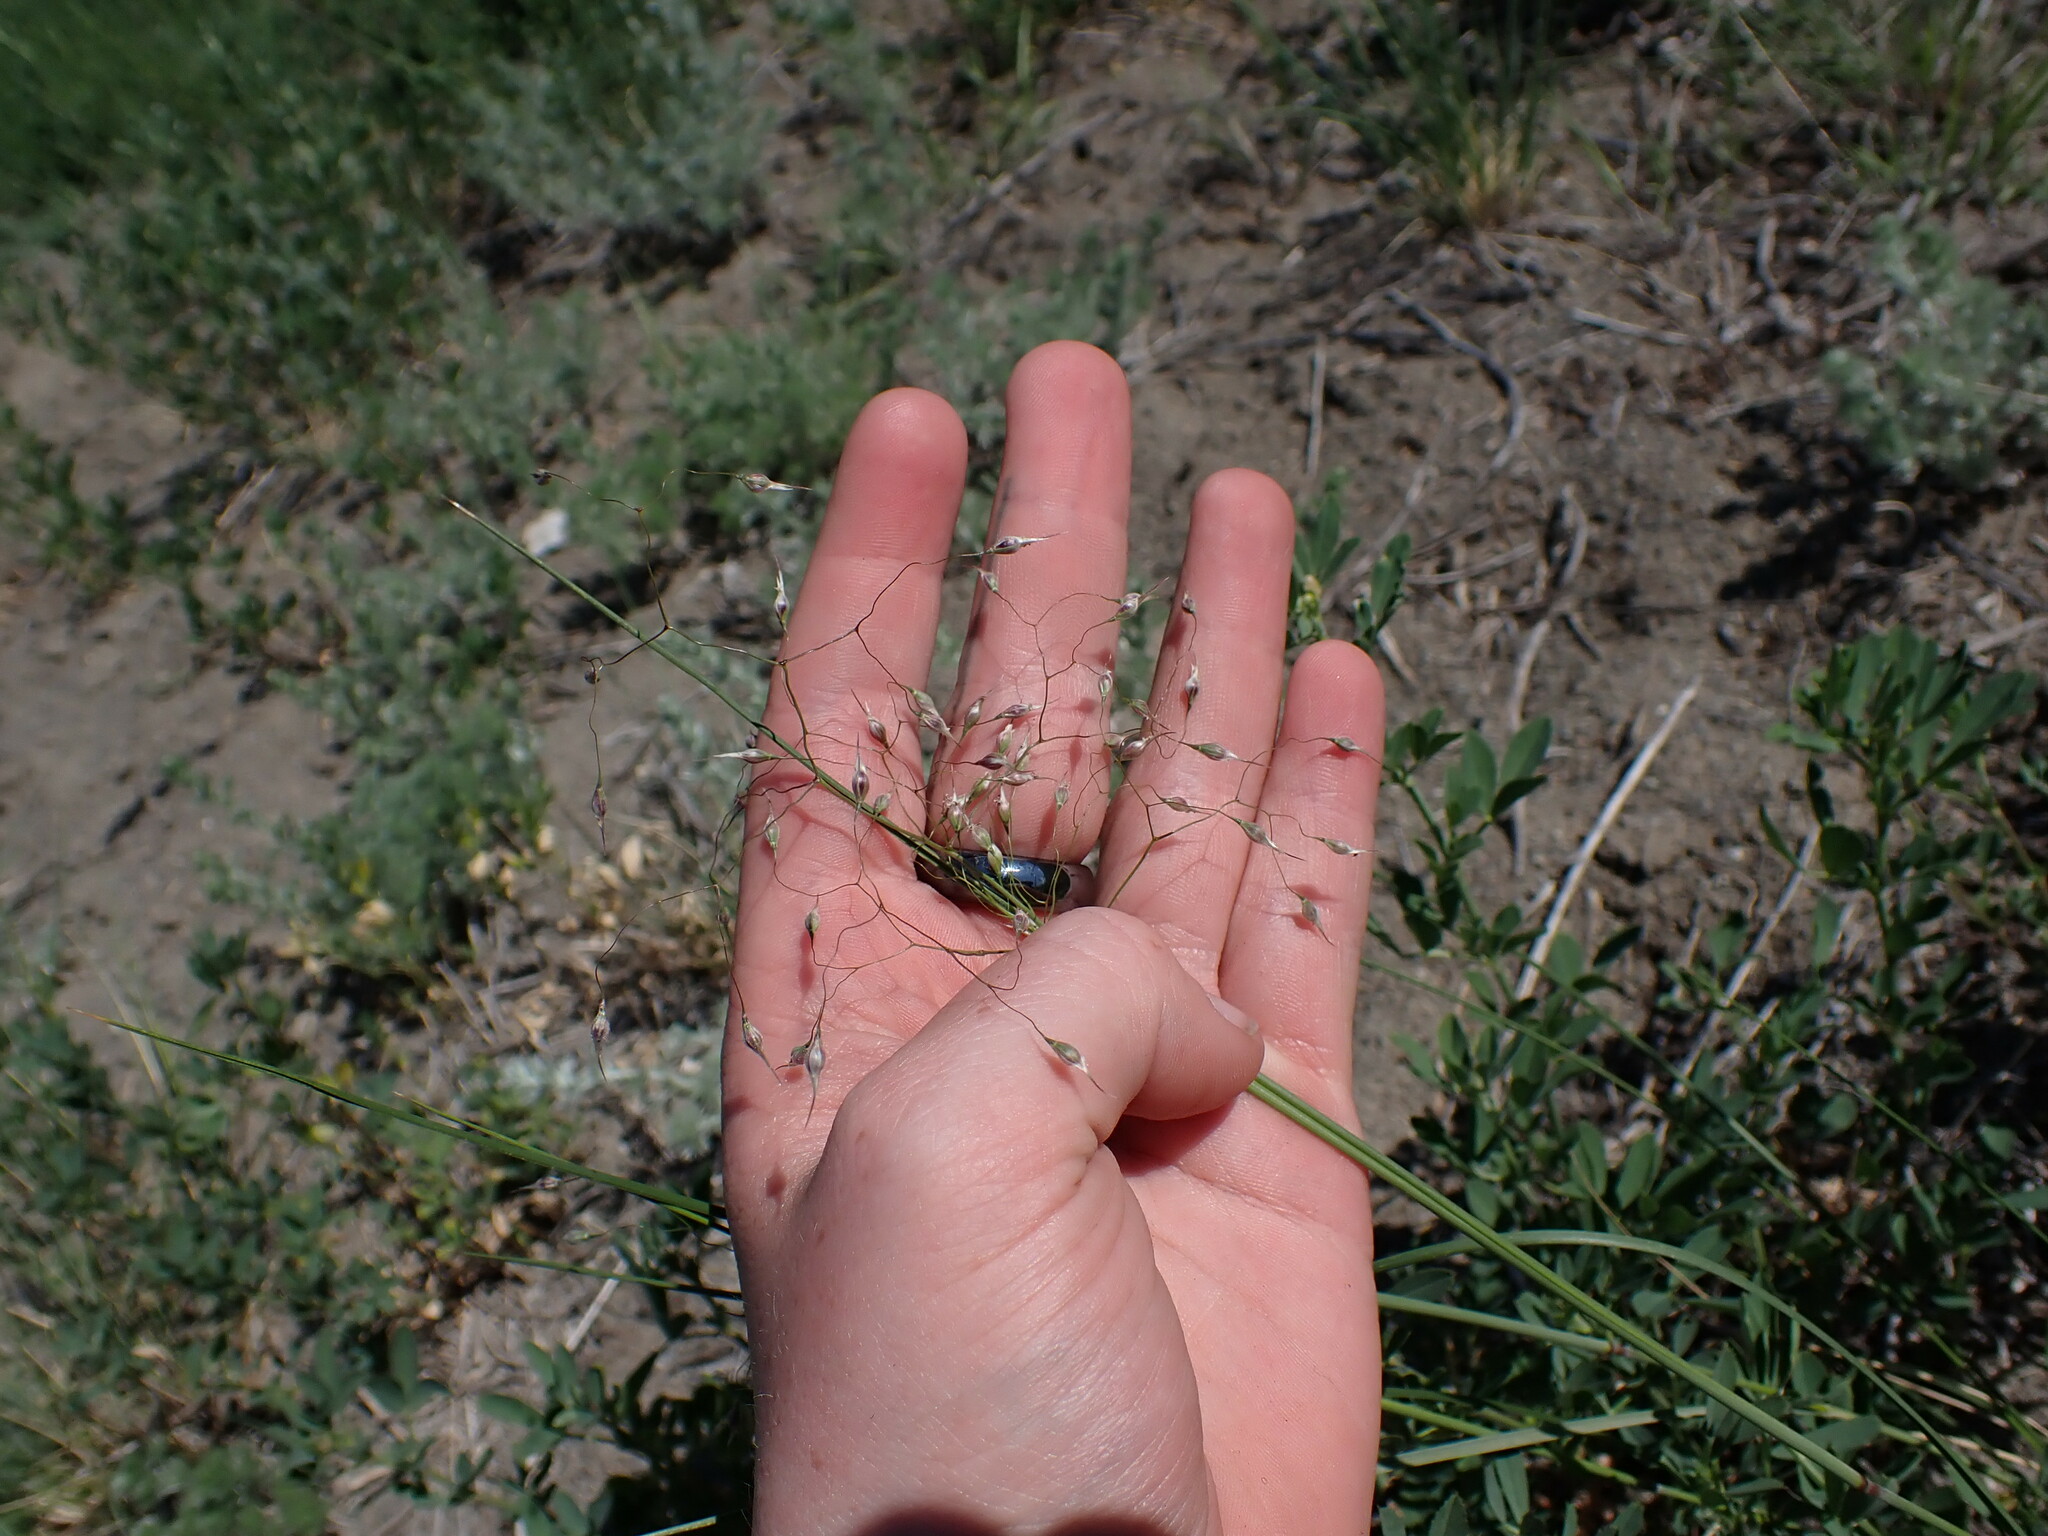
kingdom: Plantae
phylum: Tracheophyta
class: Liliopsida
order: Poales
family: Poaceae
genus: Eriocoma
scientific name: Eriocoma hymenoides
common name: Indian mountain ricegrass
